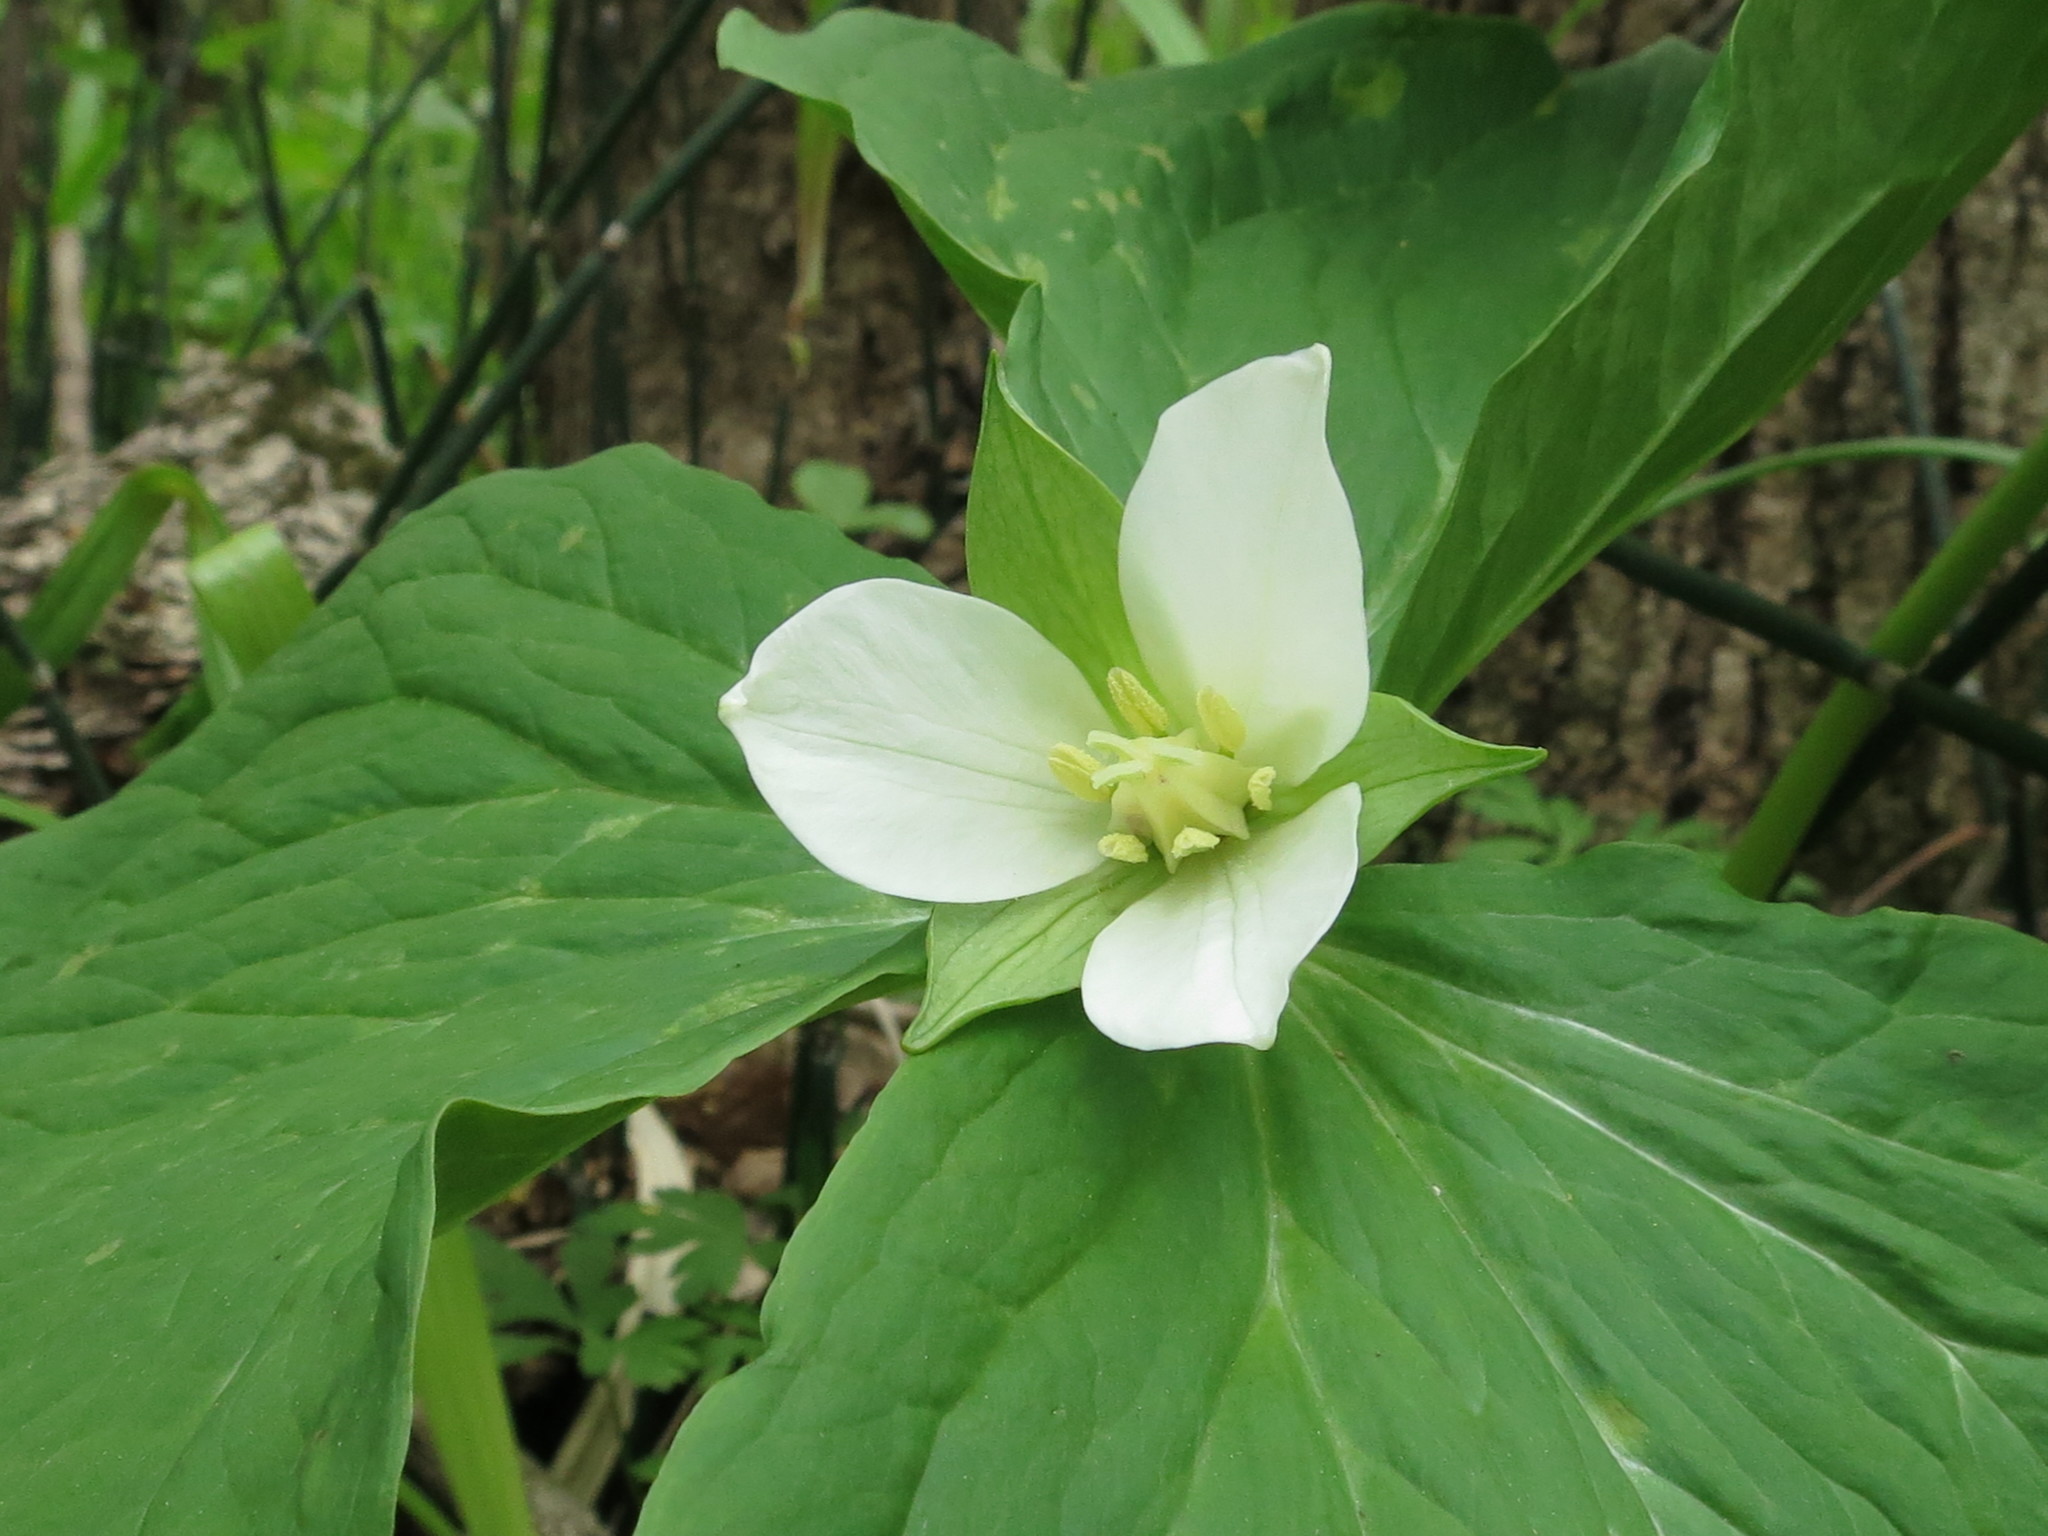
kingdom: Plantae
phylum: Tracheophyta
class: Liliopsida
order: Liliales
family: Melanthiaceae
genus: Trillium
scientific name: Trillium komarovii
